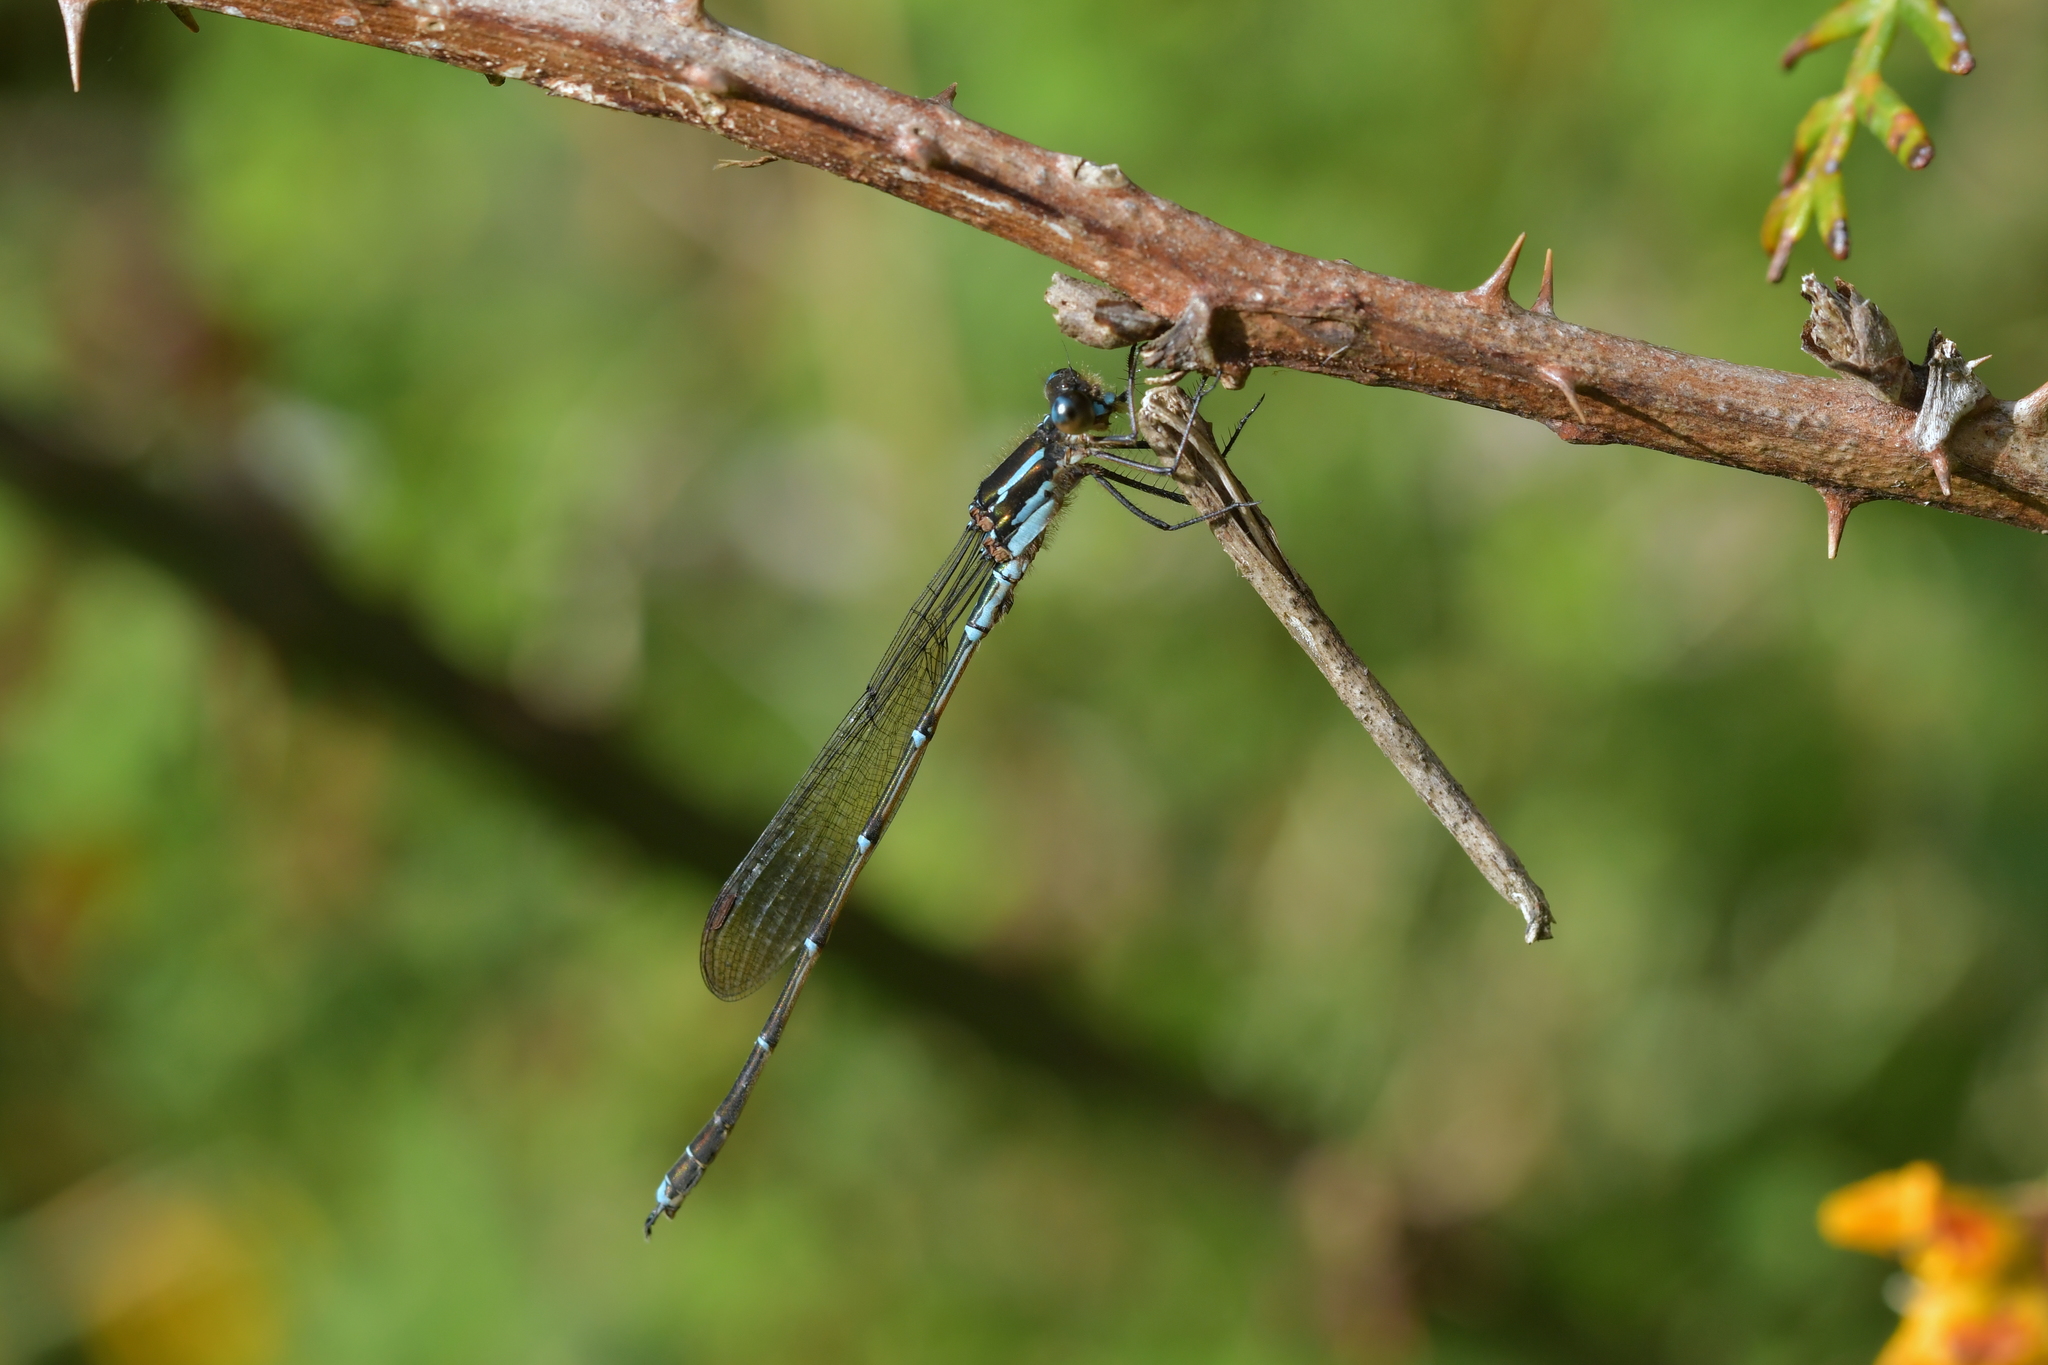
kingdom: Animalia
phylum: Arthropoda
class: Insecta
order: Odonata
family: Lestidae
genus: Austrolestes
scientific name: Austrolestes colensonis
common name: Blue damselfly
